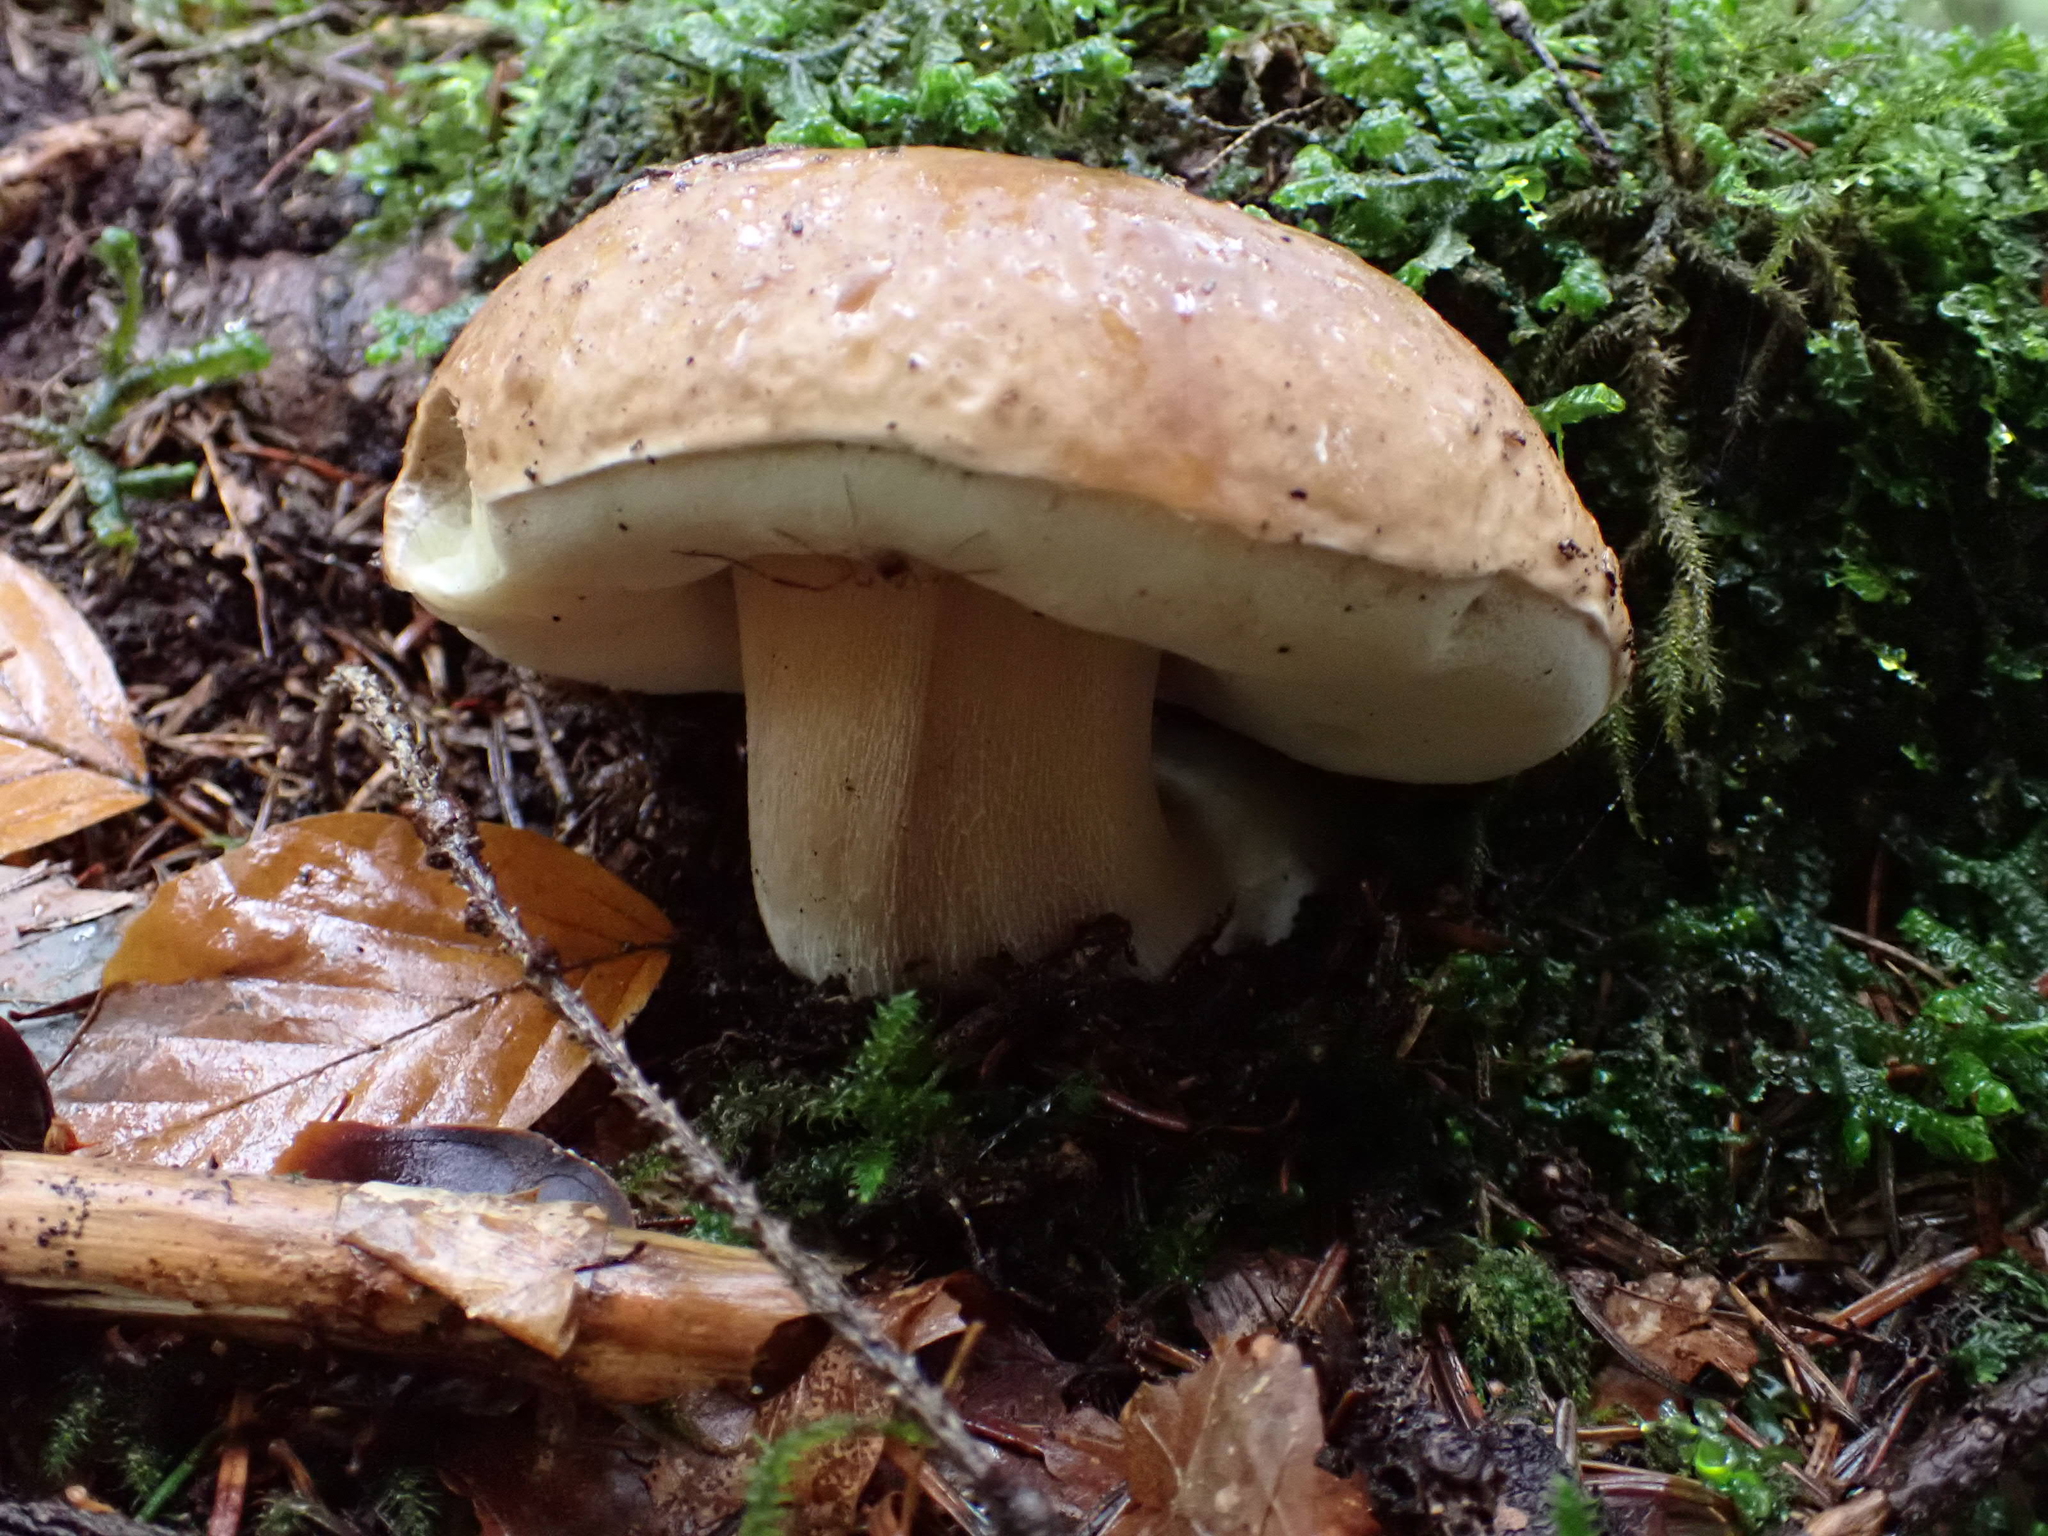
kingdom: Fungi
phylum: Basidiomycota
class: Agaricomycetes
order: Boletales
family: Boletaceae
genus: Boletus
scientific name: Boletus reticulatus
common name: Summer bolete
